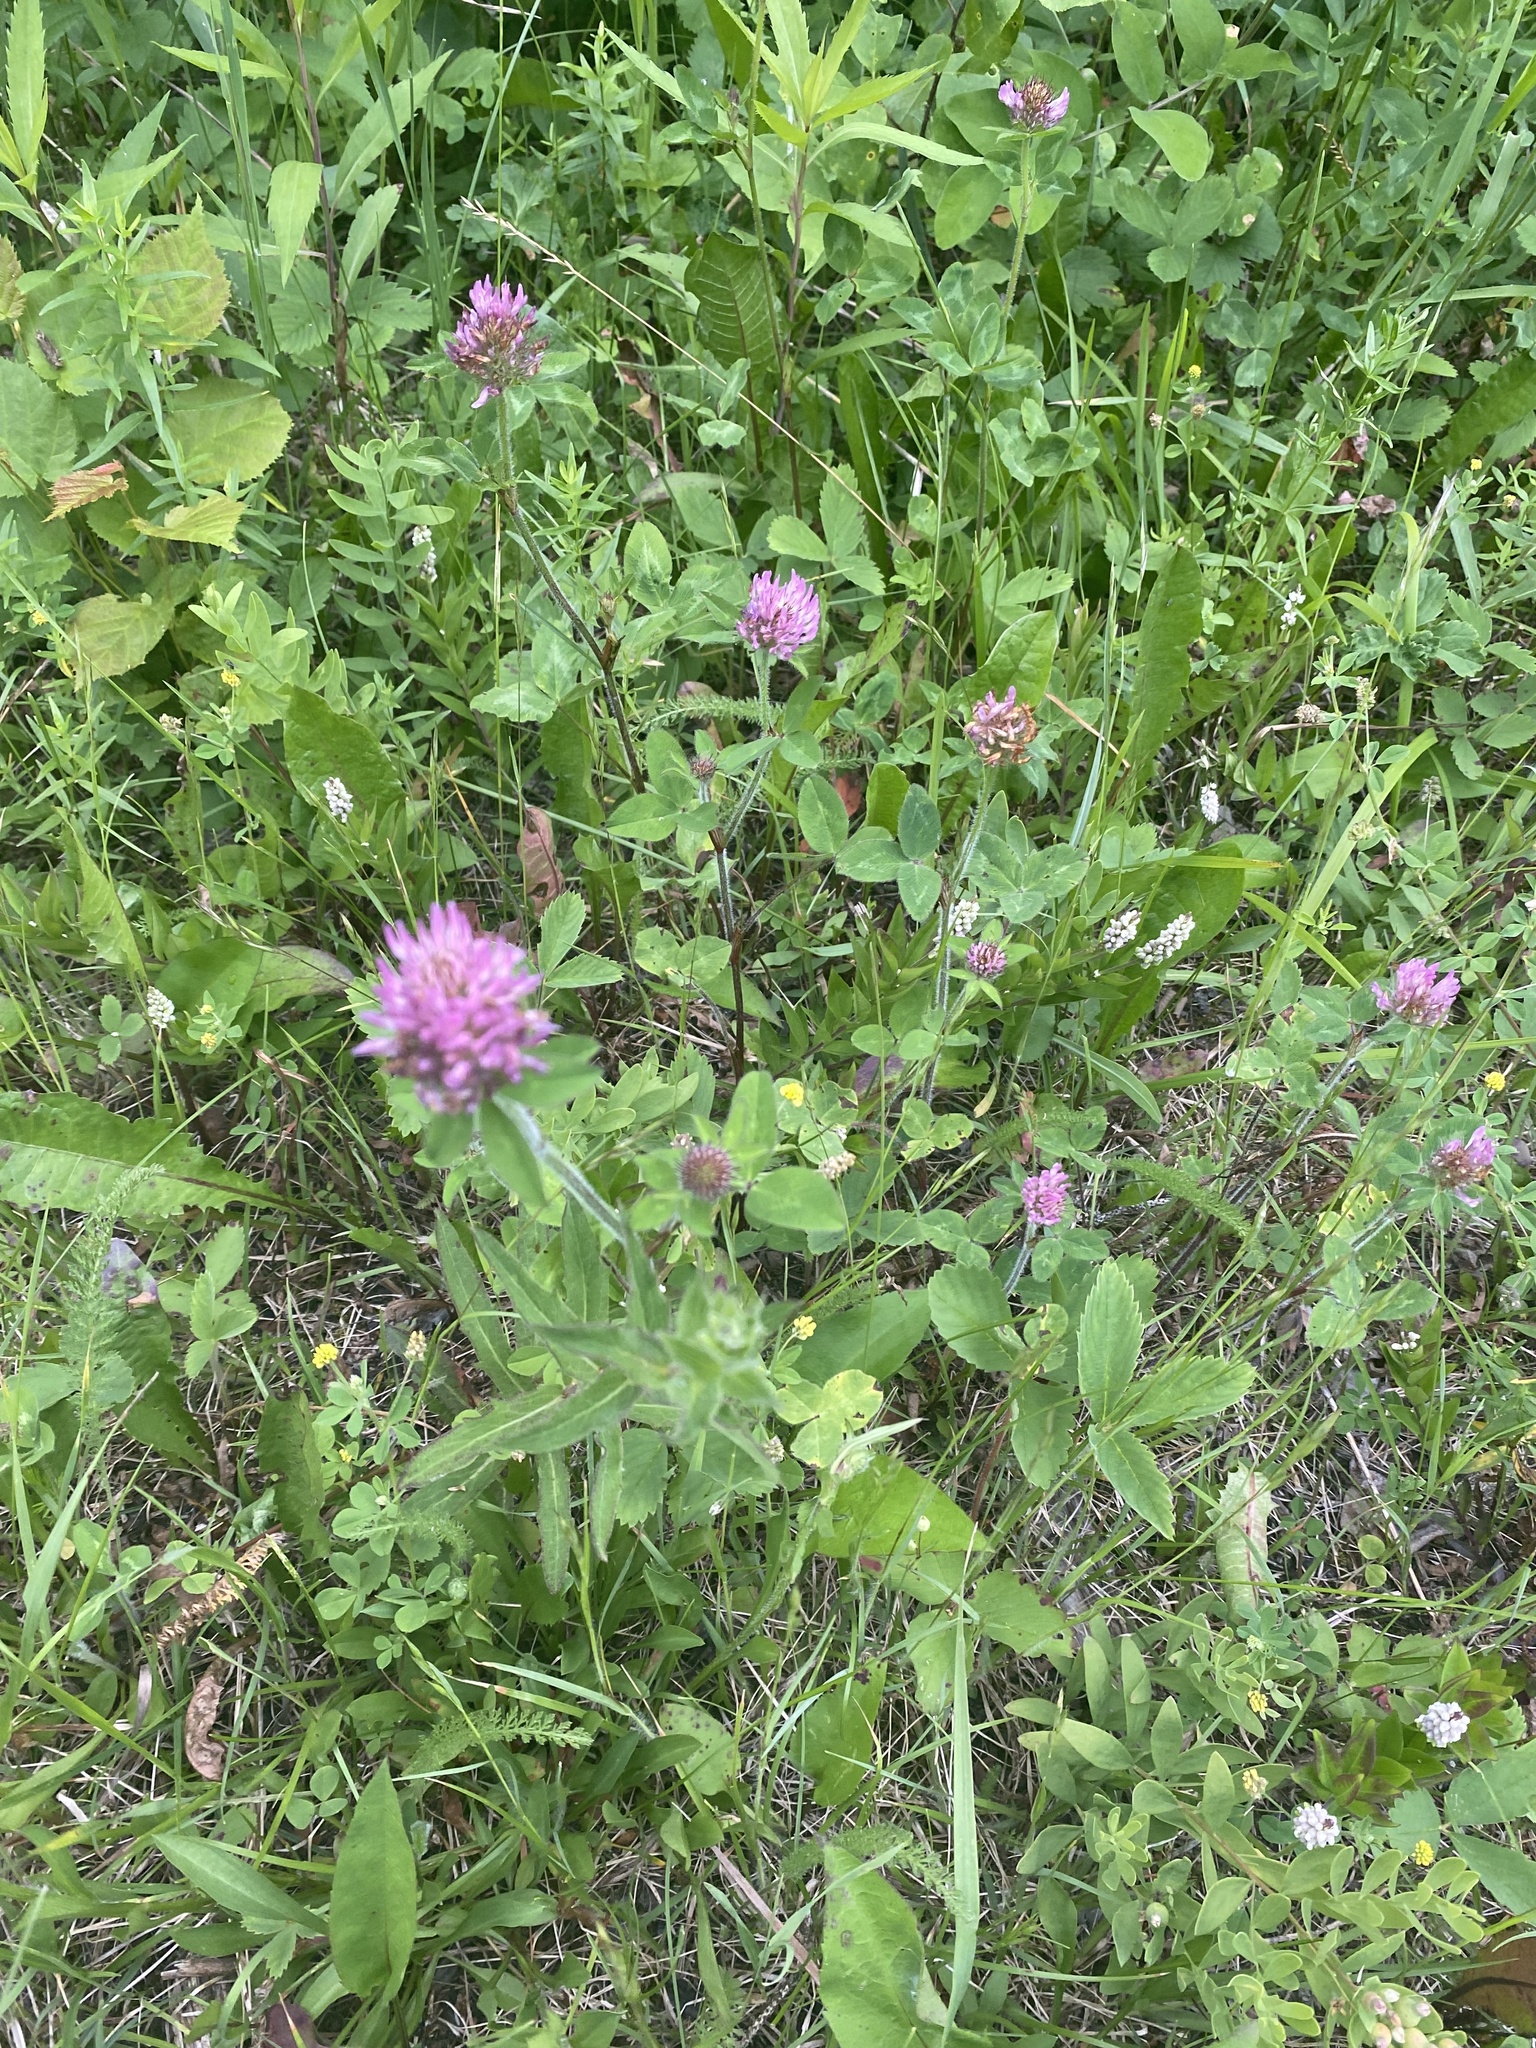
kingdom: Plantae
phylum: Tracheophyta
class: Magnoliopsida
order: Fabales
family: Fabaceae
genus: Trifolium
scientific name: Trifolium pratense
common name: Red clover
